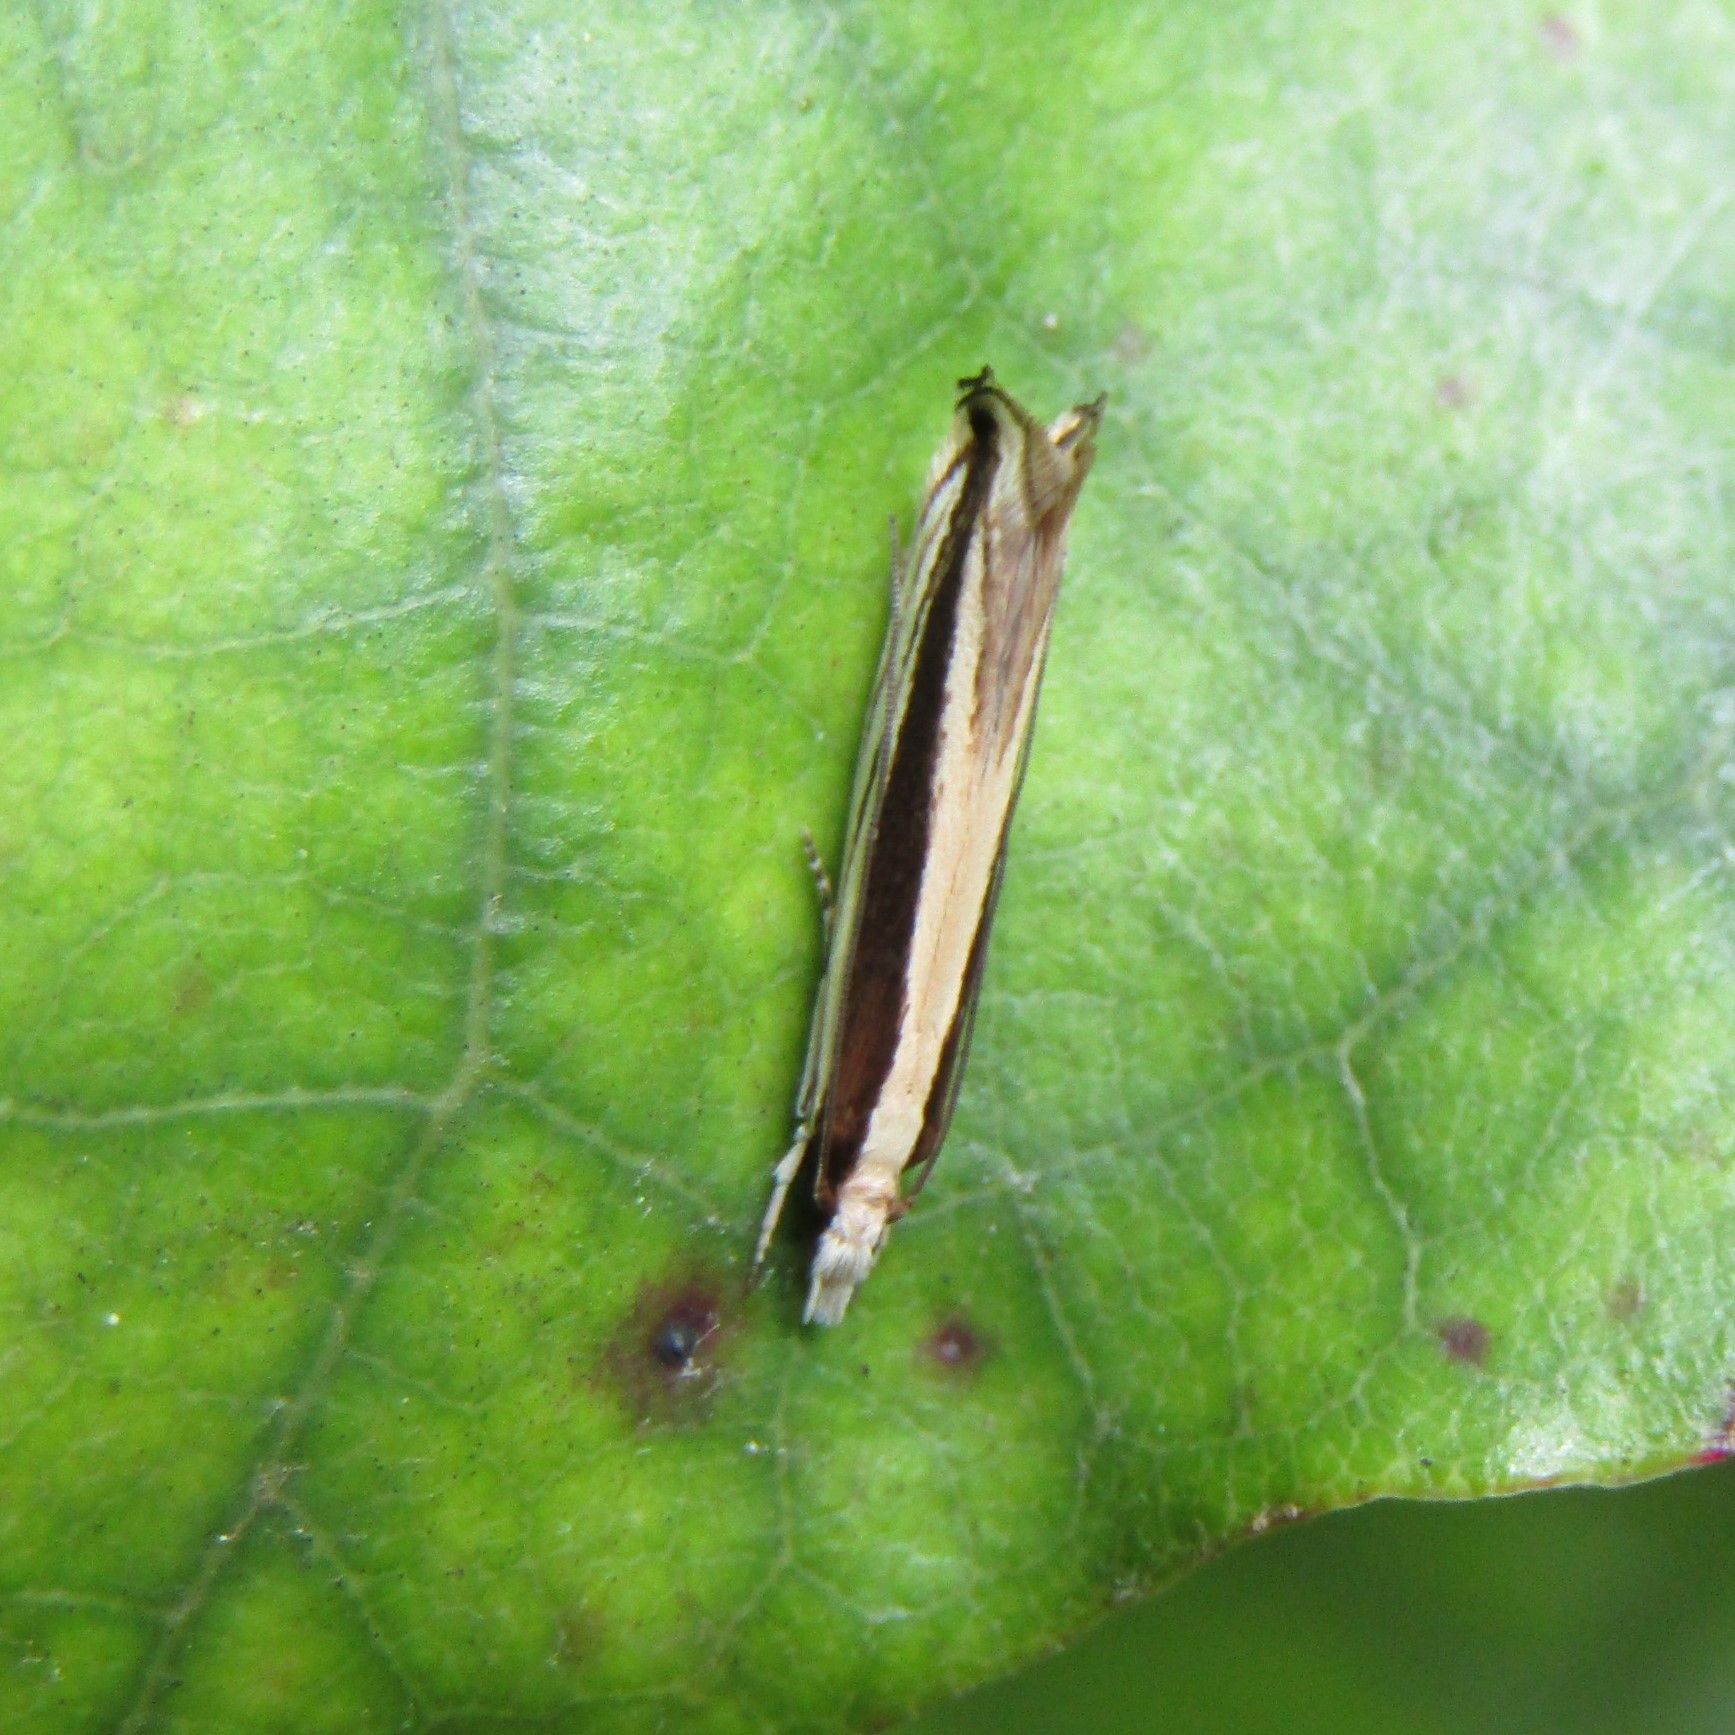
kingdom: Animalia
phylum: Arthropoda
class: Insecta
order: Lepidoptera
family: Tineidae
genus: Erechthias
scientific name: Erechthias stilbella
